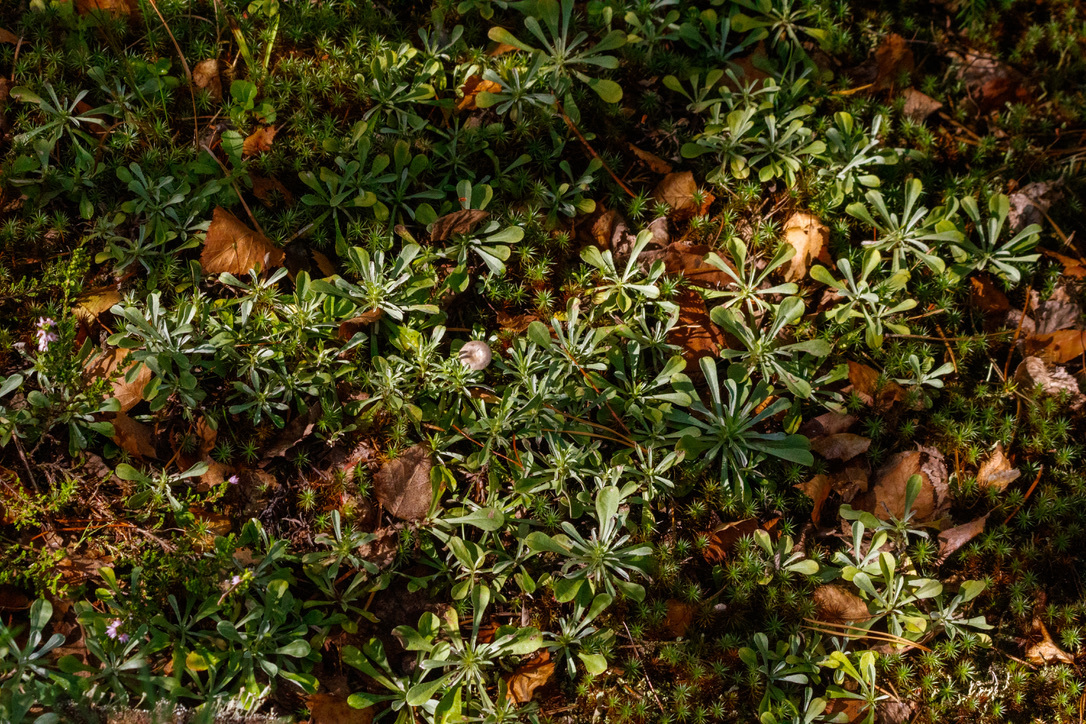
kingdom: Plantae
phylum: Tracheophyta
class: Magnoliopsida
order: Asterales
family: Asteraceae
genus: Antennaria
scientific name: Antennaria dioica
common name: Mountain everlasting
